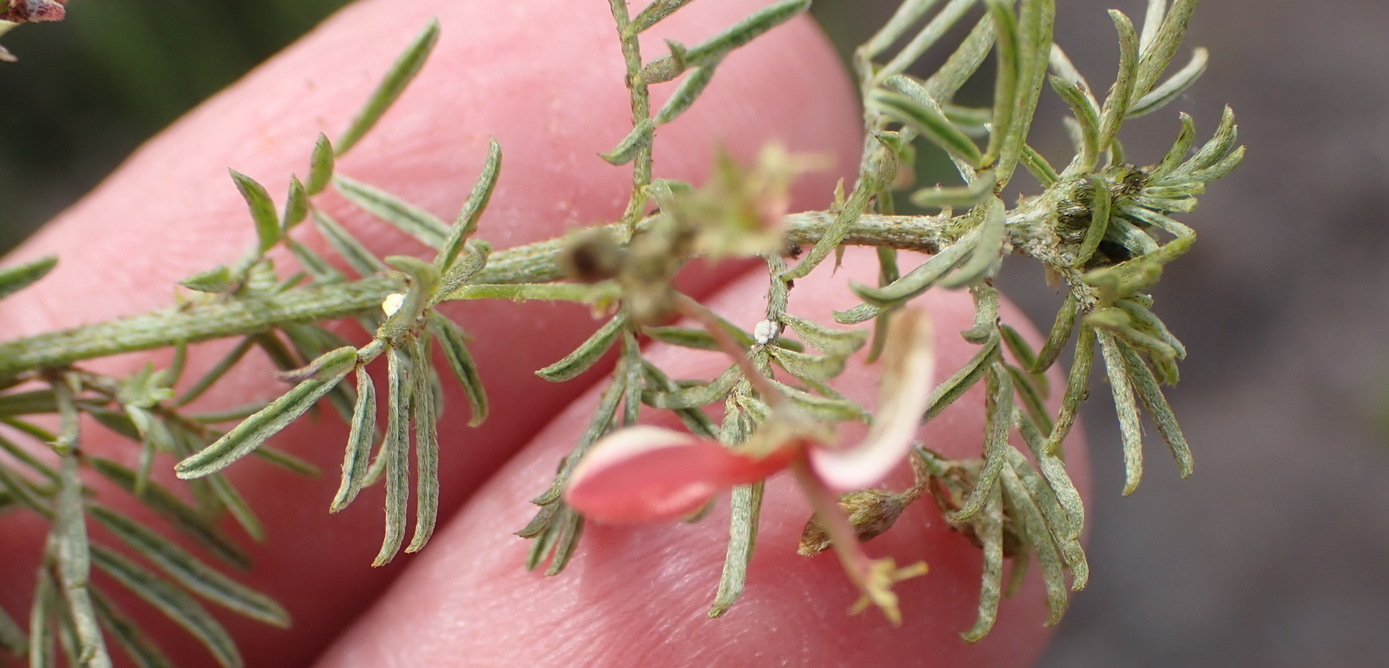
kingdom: Plantae
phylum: Tracheophyta
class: Magnoliopsida
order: Fabales
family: Fabaceae
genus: Indigofera
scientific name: Indigofera verrucosa
